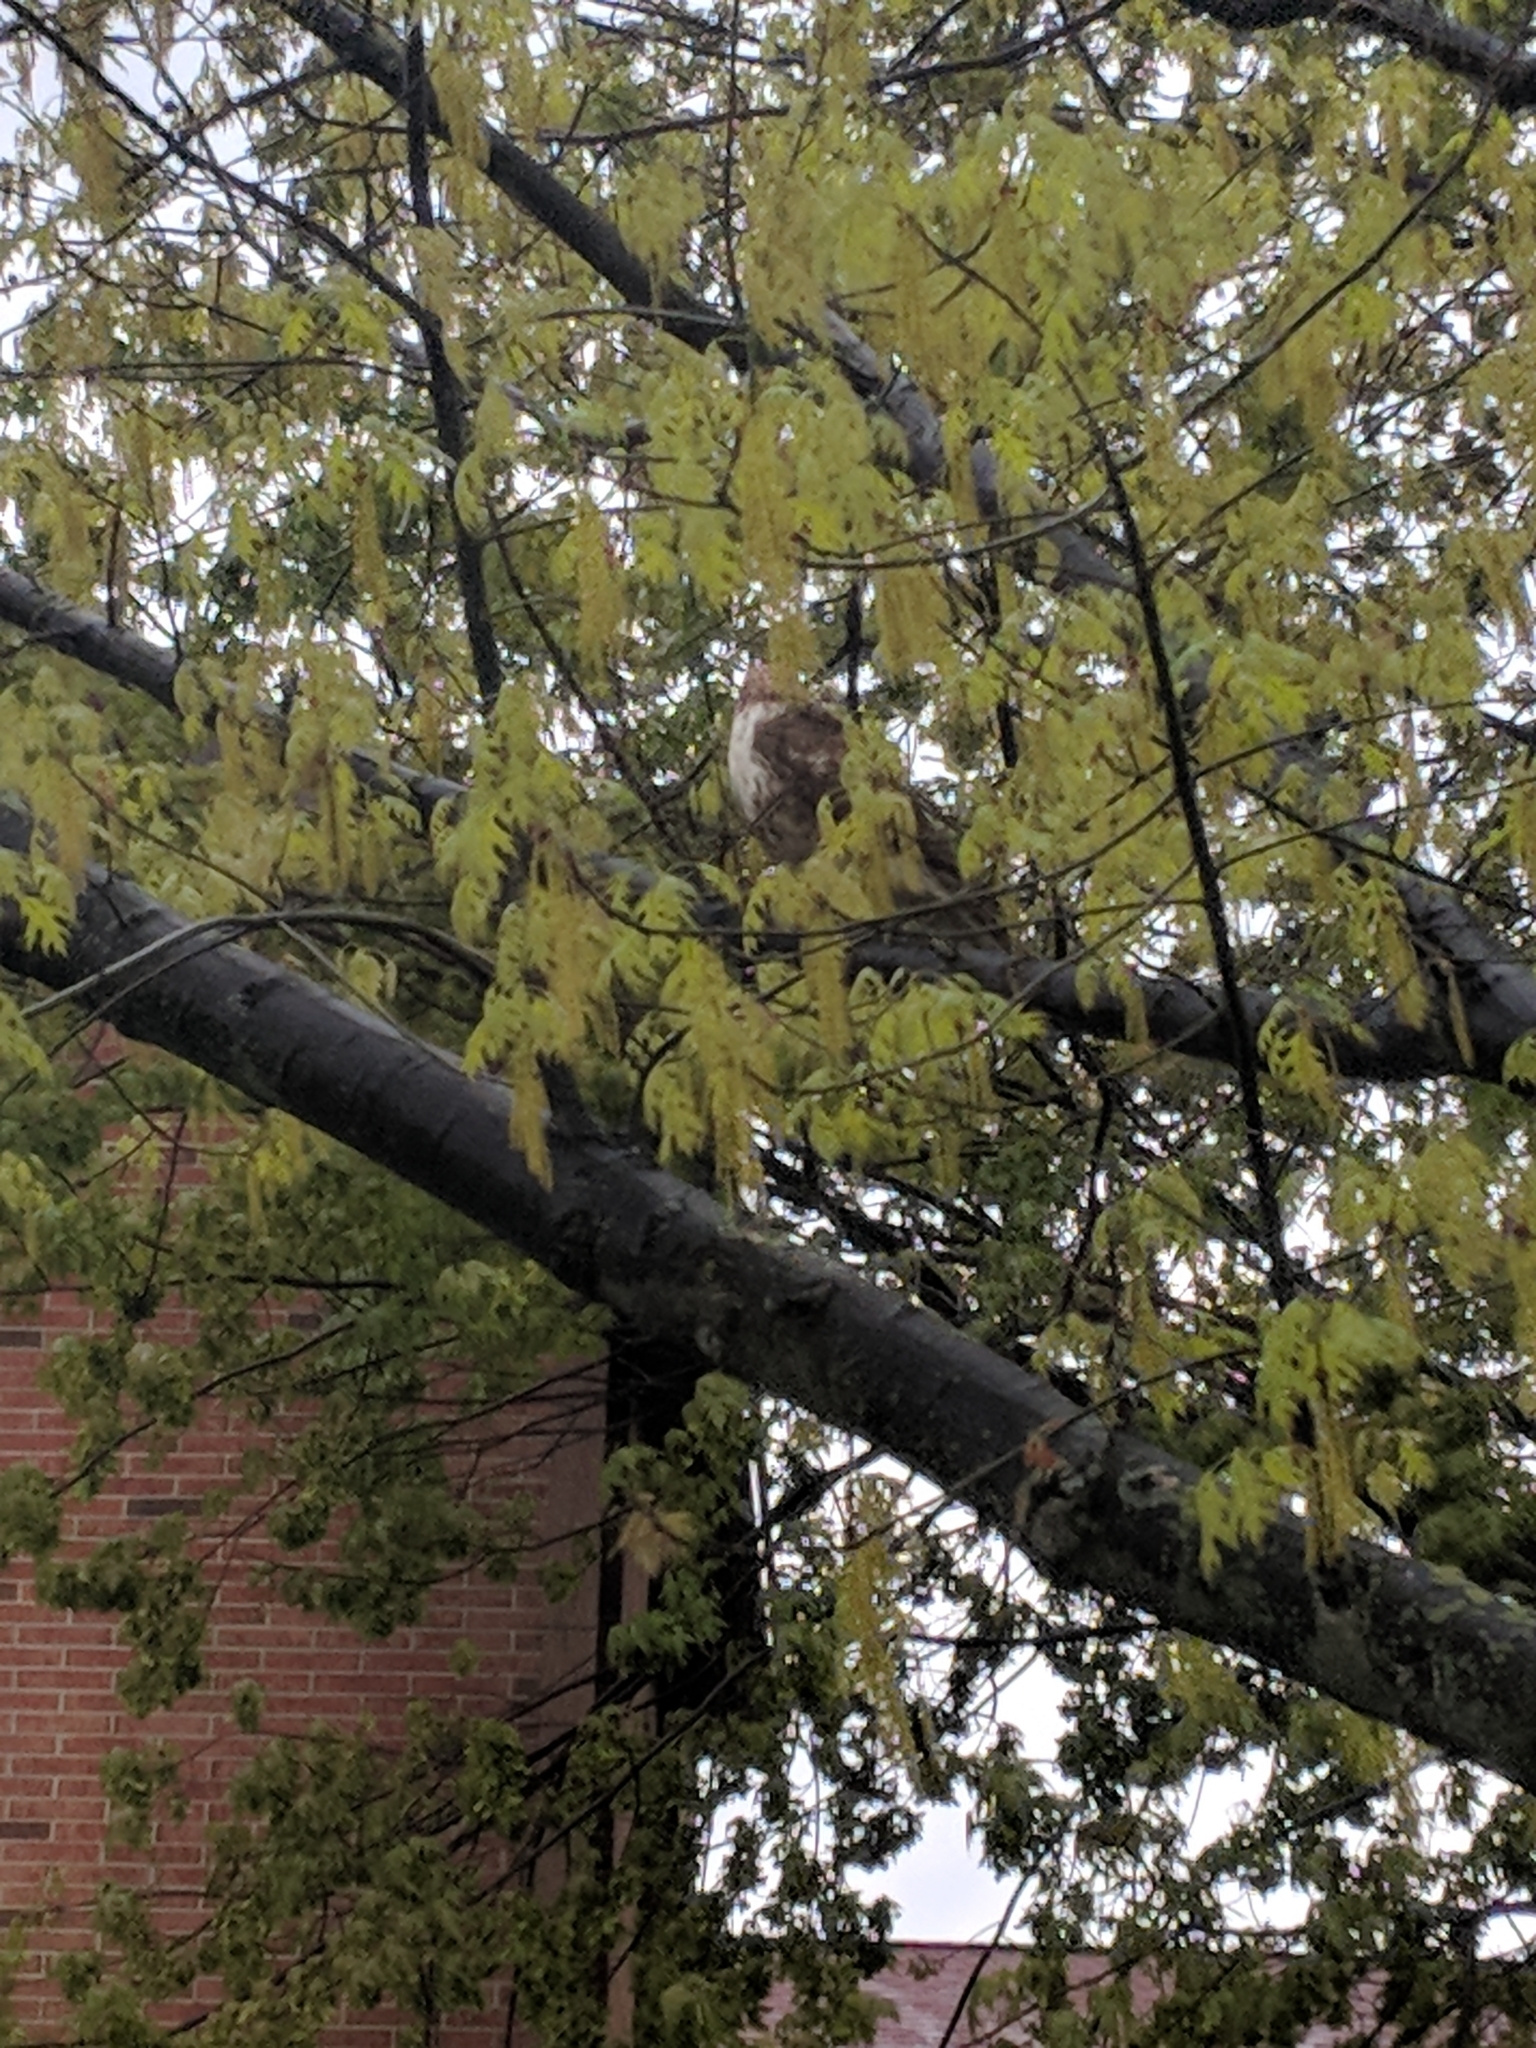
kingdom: Animalia
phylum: Chordata
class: Aves
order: Accipitriformes
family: Accipitridae
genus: Buteo
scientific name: Buteo jamaicensis
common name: Red-tailed hawk
